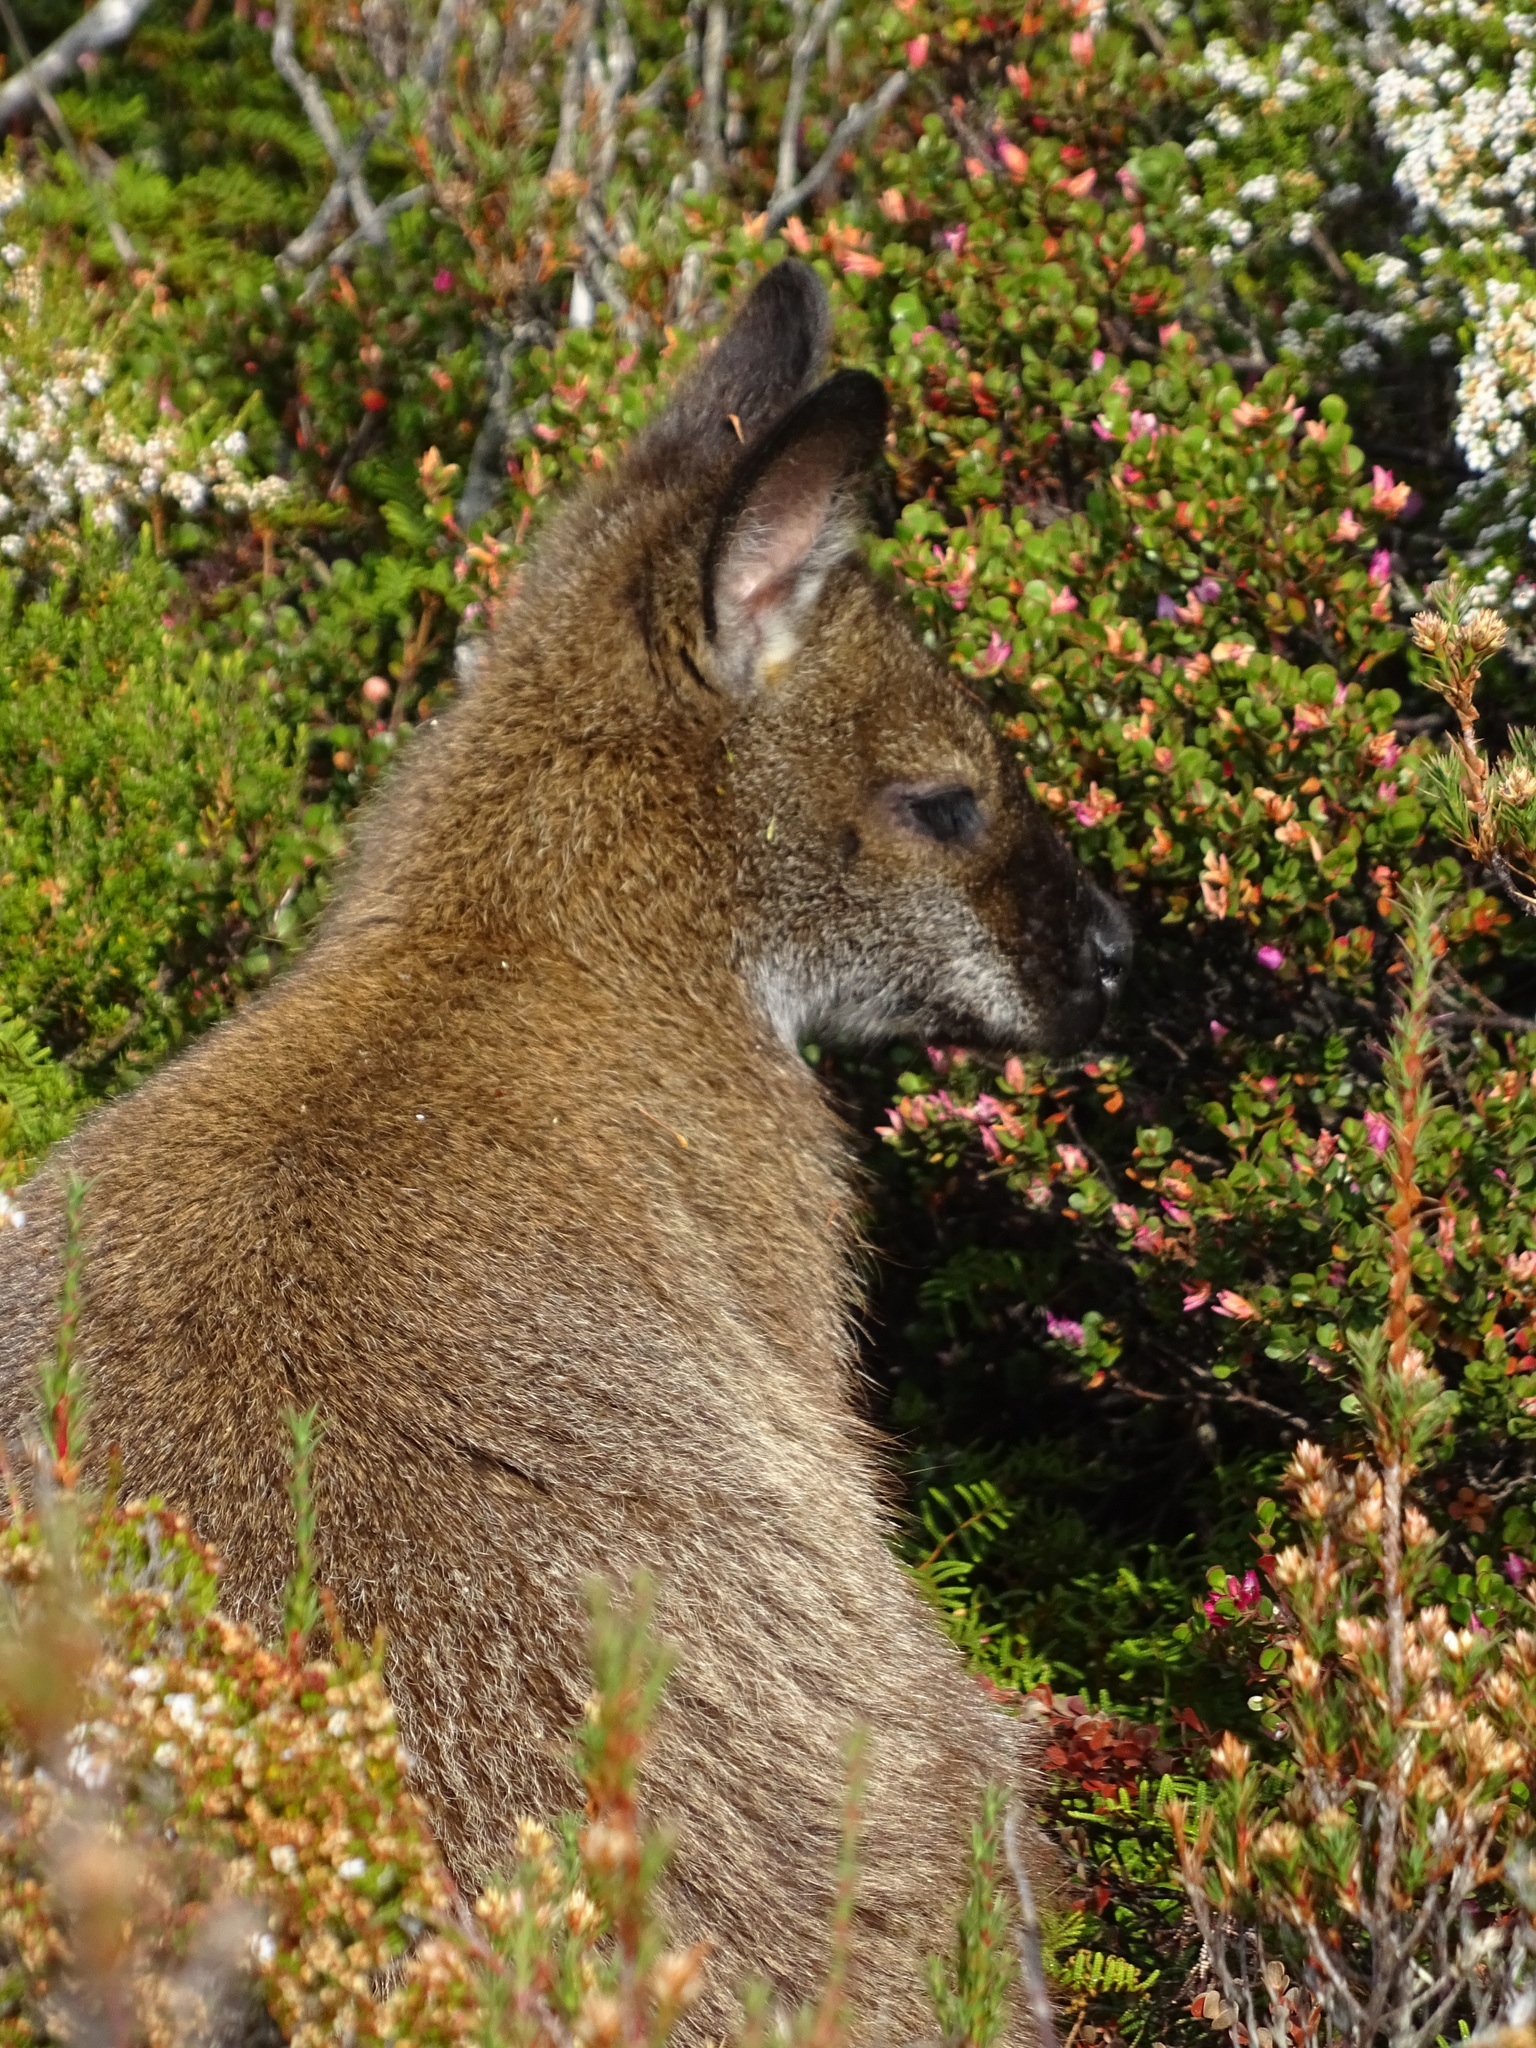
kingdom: Animalia
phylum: Chordata
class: Mammalia
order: Diprotodontia
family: Macropodidae
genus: Notamacropus
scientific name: Notamacropus rufogriseus
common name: Red-necked wallaby
